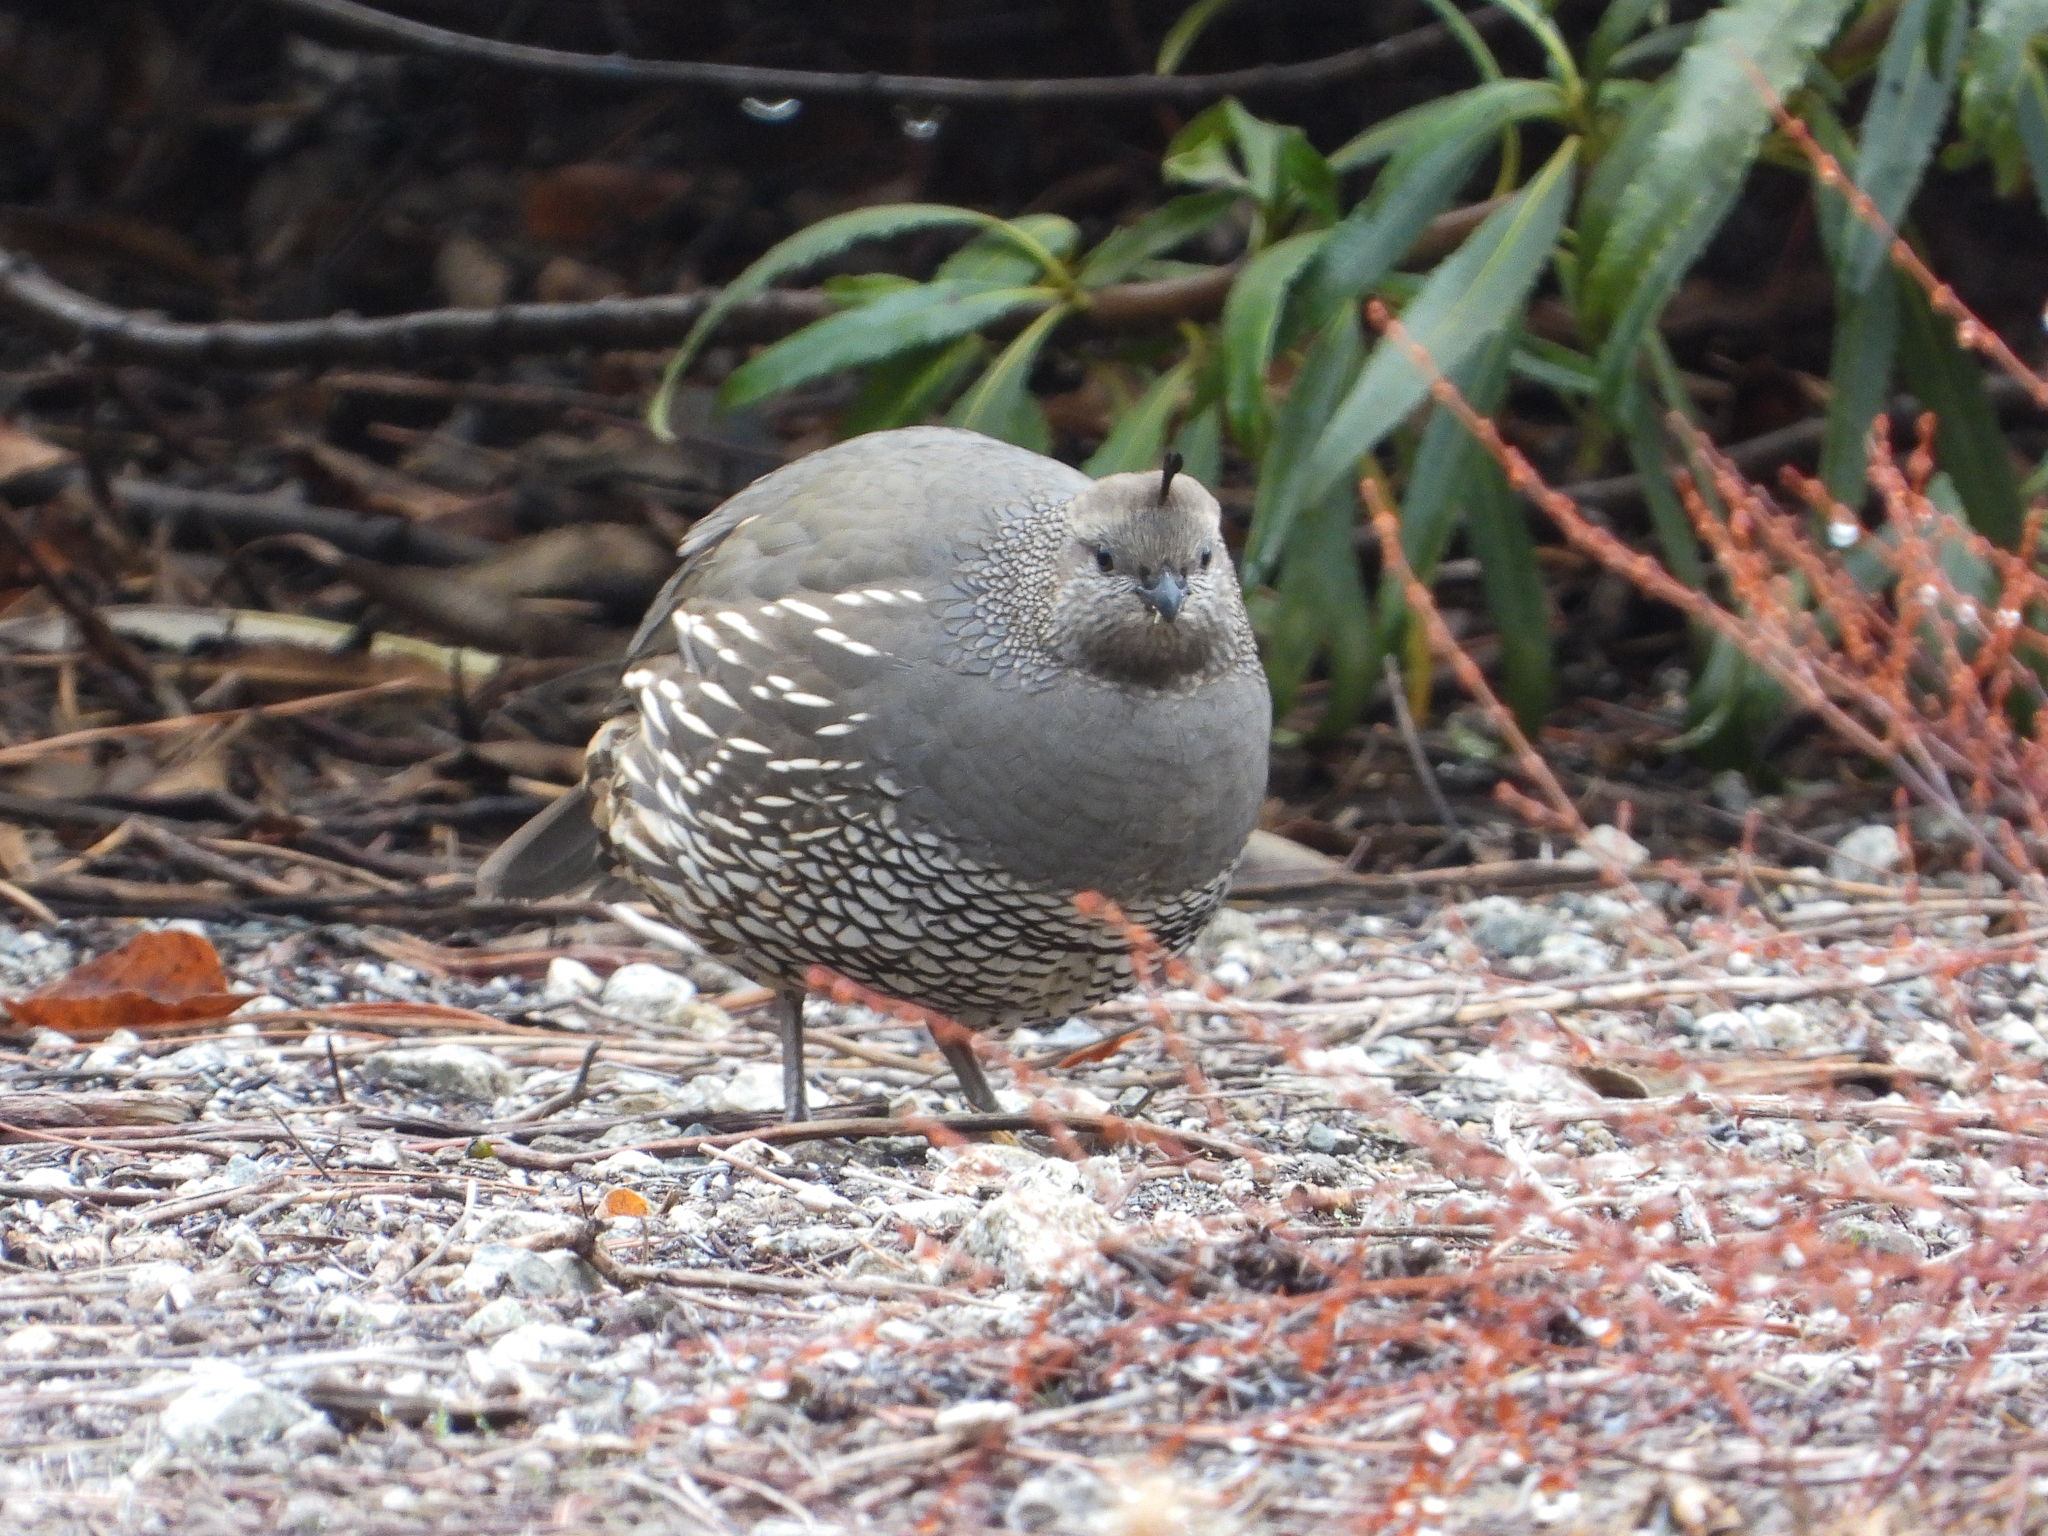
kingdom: Animalia
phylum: Chordata
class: Aves
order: Galliformes
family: Odontophoridae
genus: Callipepla
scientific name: Callipepla californica
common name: California quail
